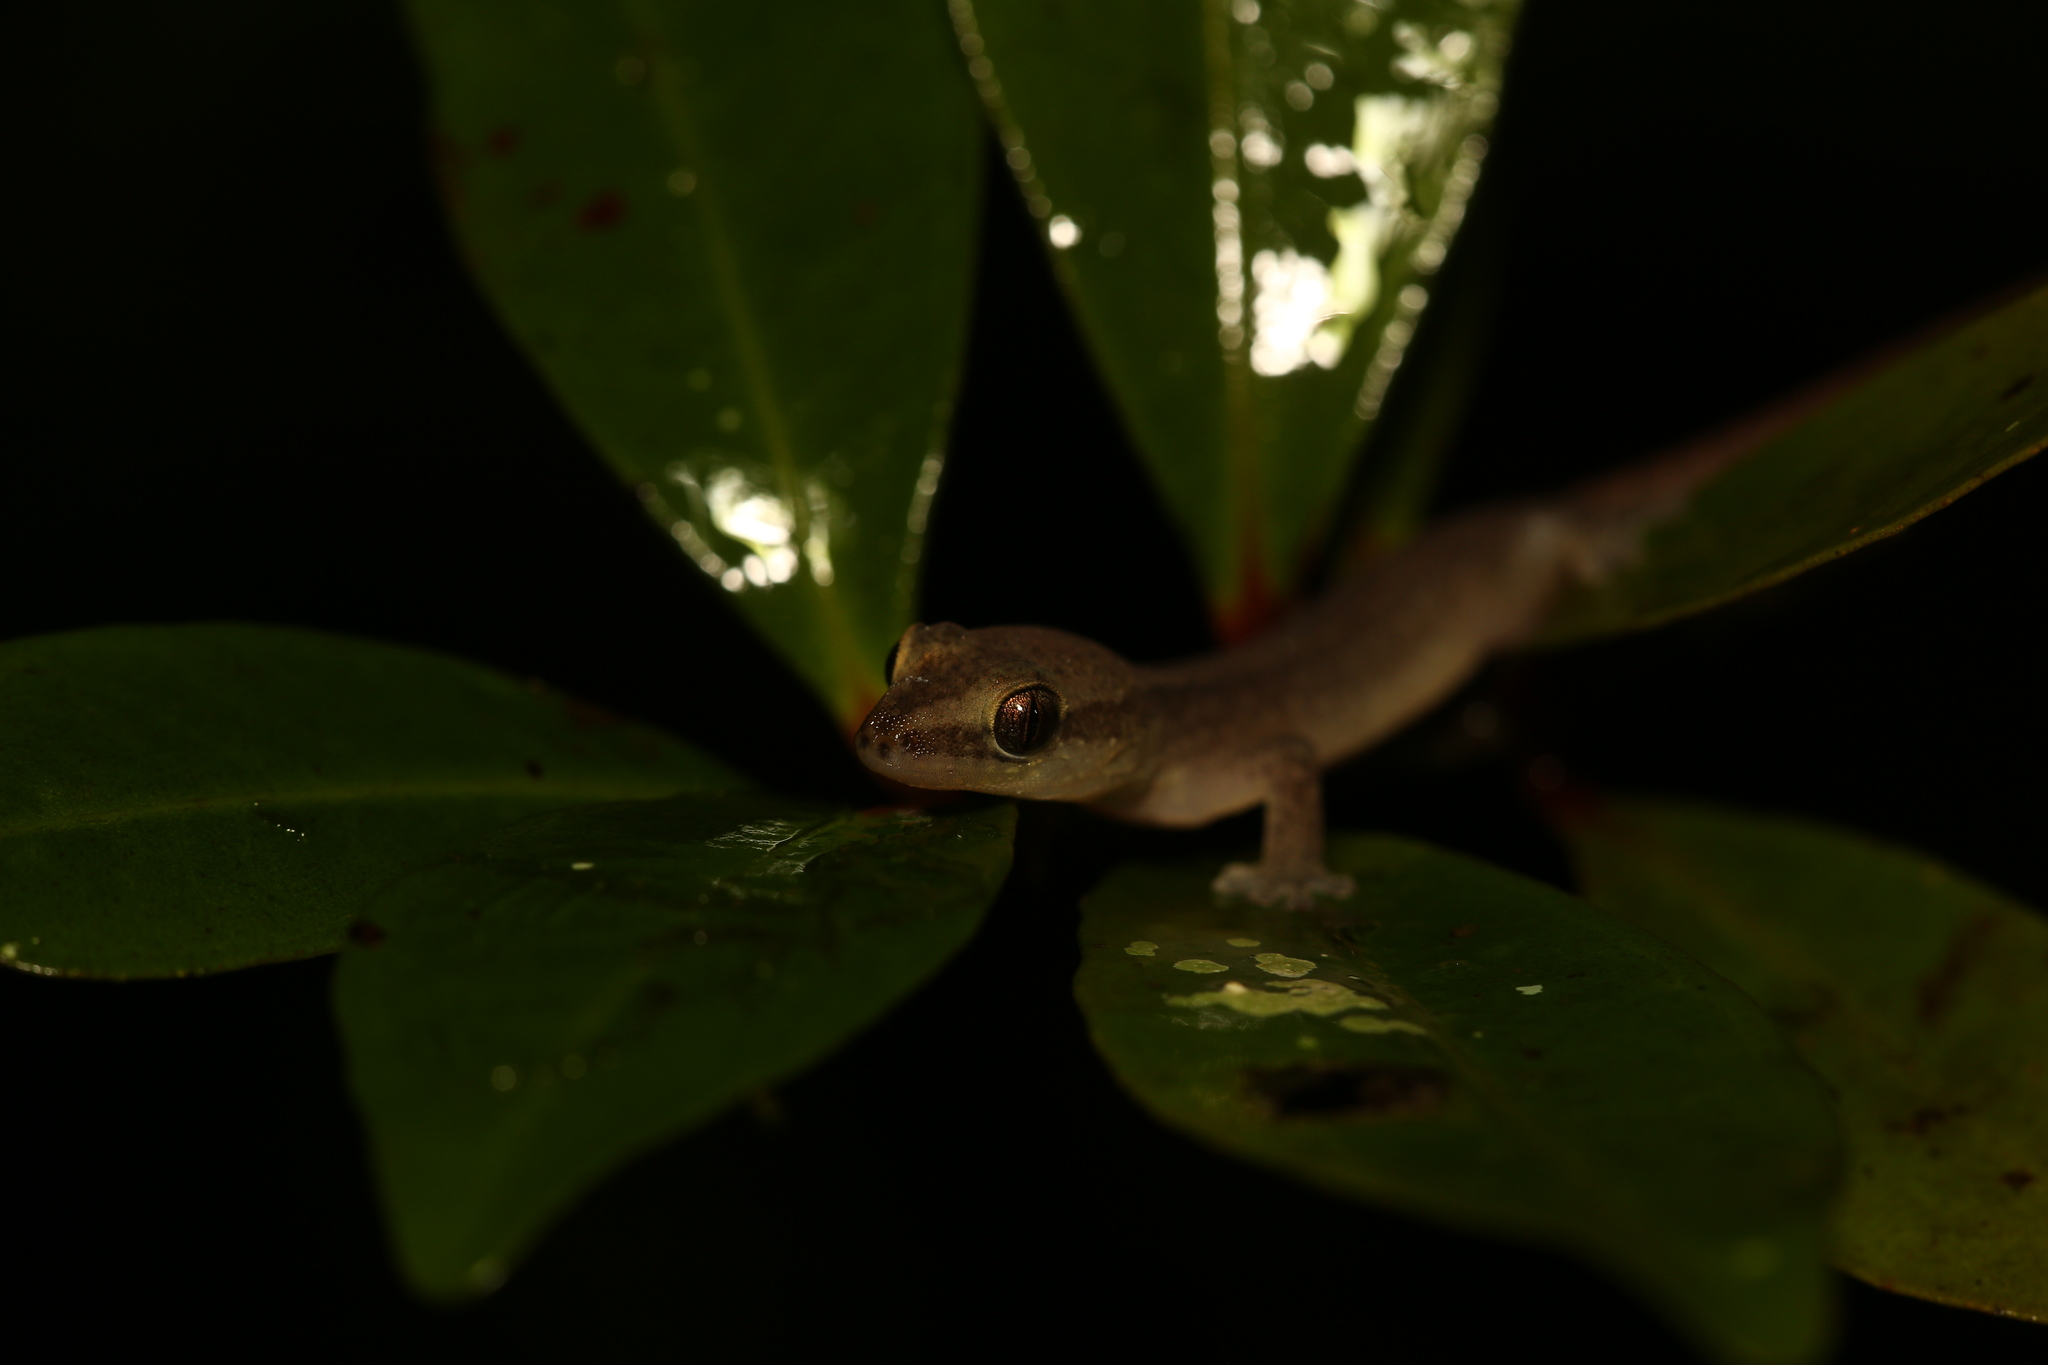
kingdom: Animalia
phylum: Chordata
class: Squamata
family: Diplodactylidae
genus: Bavayia
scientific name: Bavayia septuiclavis
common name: Pale-stripe bavayia
